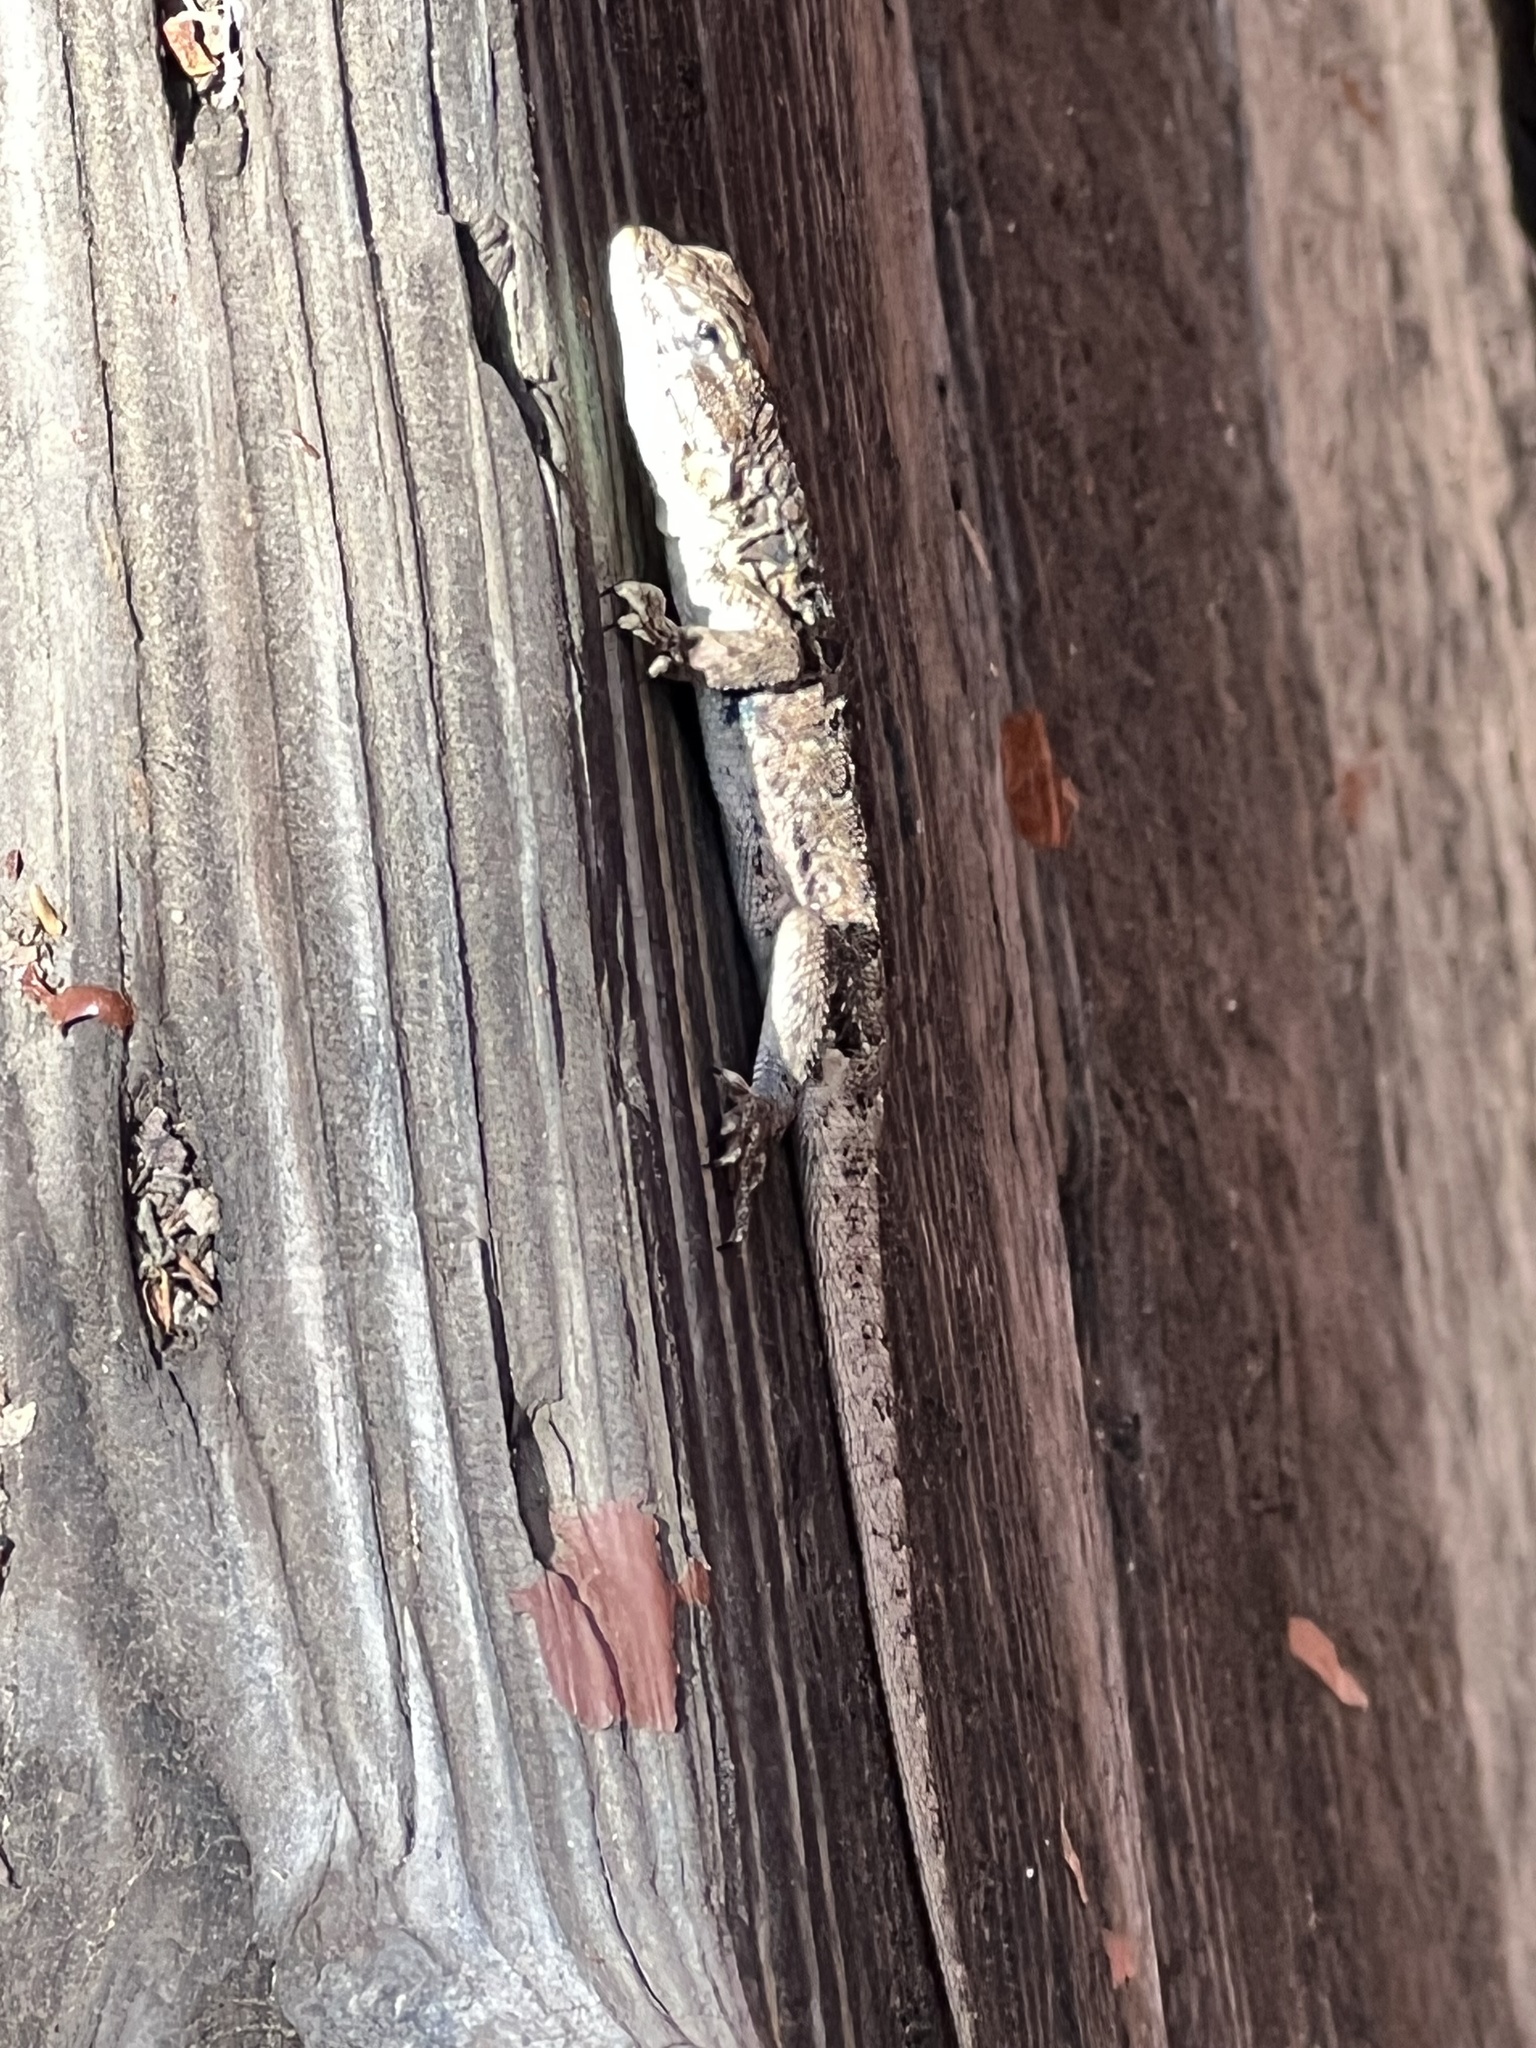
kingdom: Animalia
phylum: Chordata
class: Squamata
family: Phrynosomatidae
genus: Uta
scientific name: Uta stansburiana
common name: Side-blotched lizard
